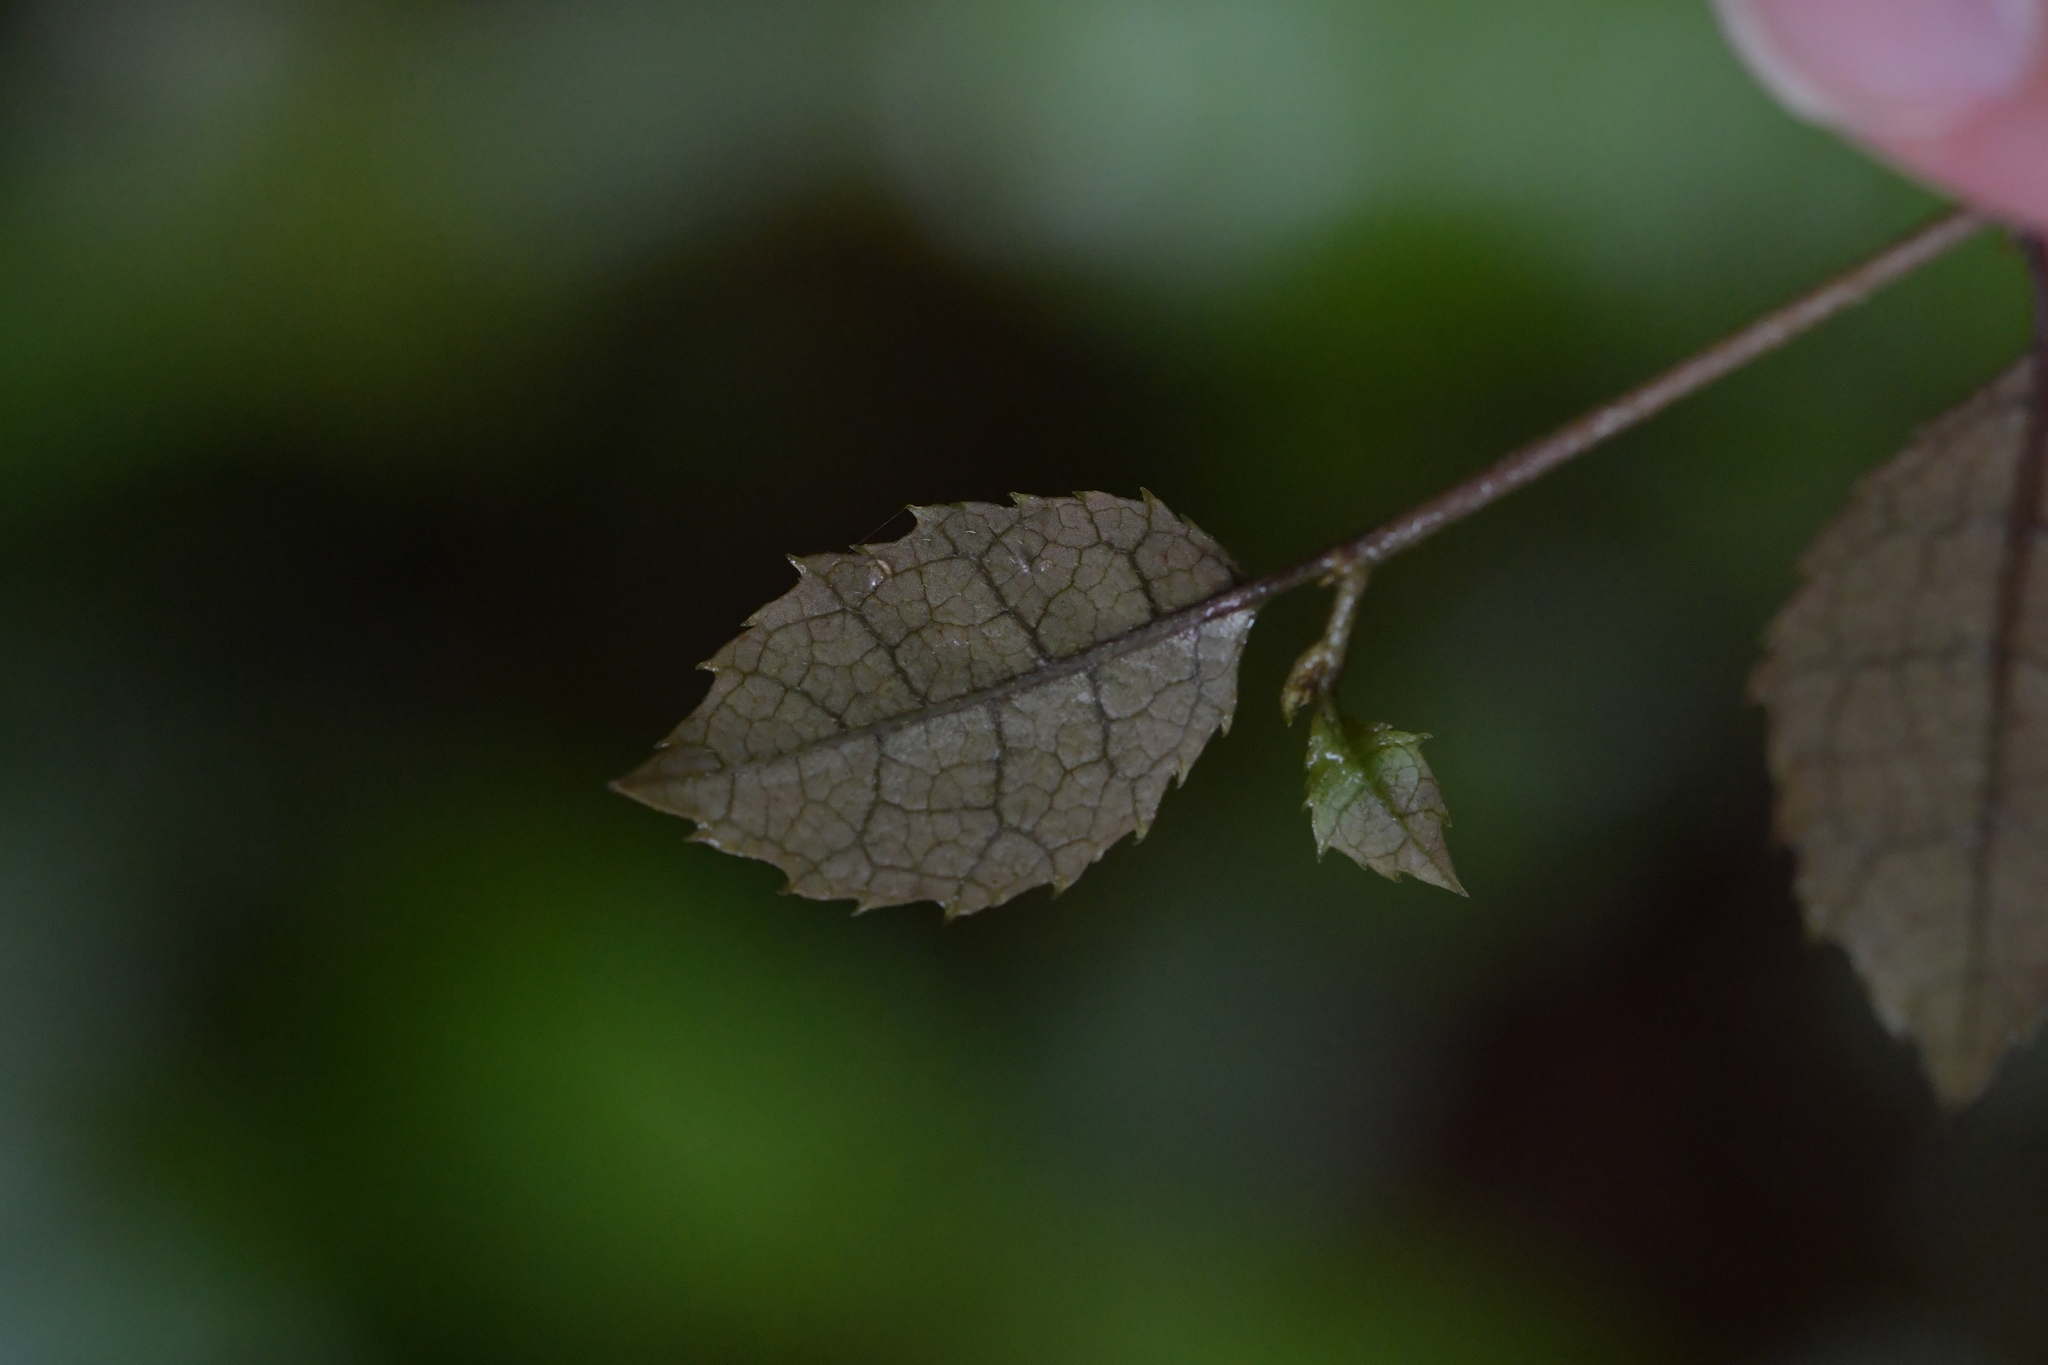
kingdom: Plantae
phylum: Tracheophyta
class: Magnoliopsida
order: Asterales
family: Rousseaceae
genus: Carpodetus
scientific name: Carpodetus serratus
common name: White mapau
